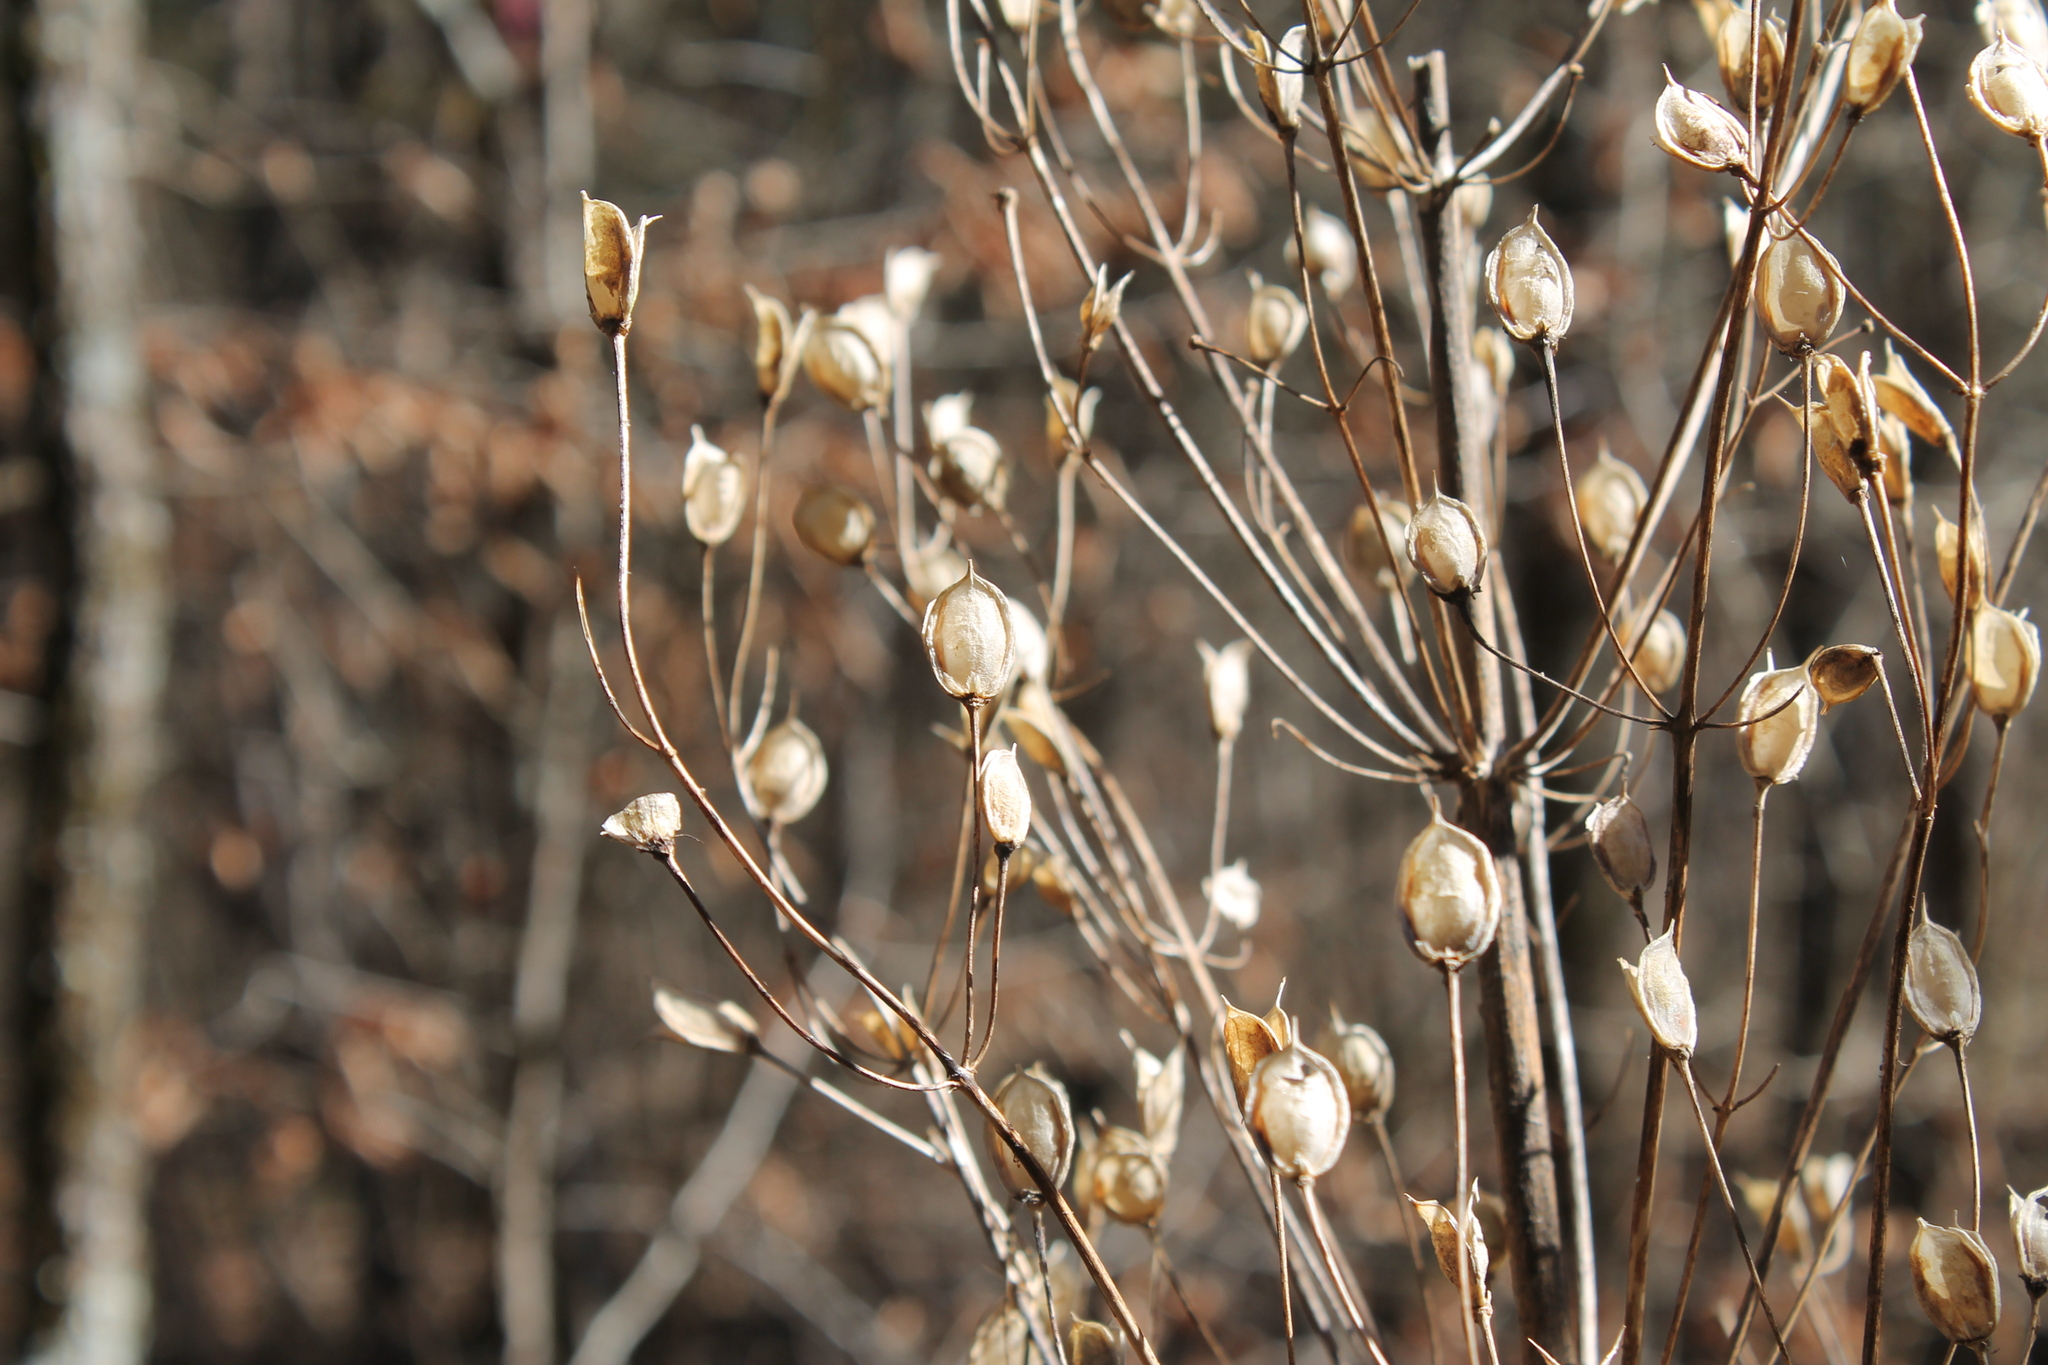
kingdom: Plantae
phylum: Tracheophyta
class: Magnoliopsida
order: Gentianales
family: Gentianaceae
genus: Frasera
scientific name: Frasera caroliniensis
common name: American columbo
